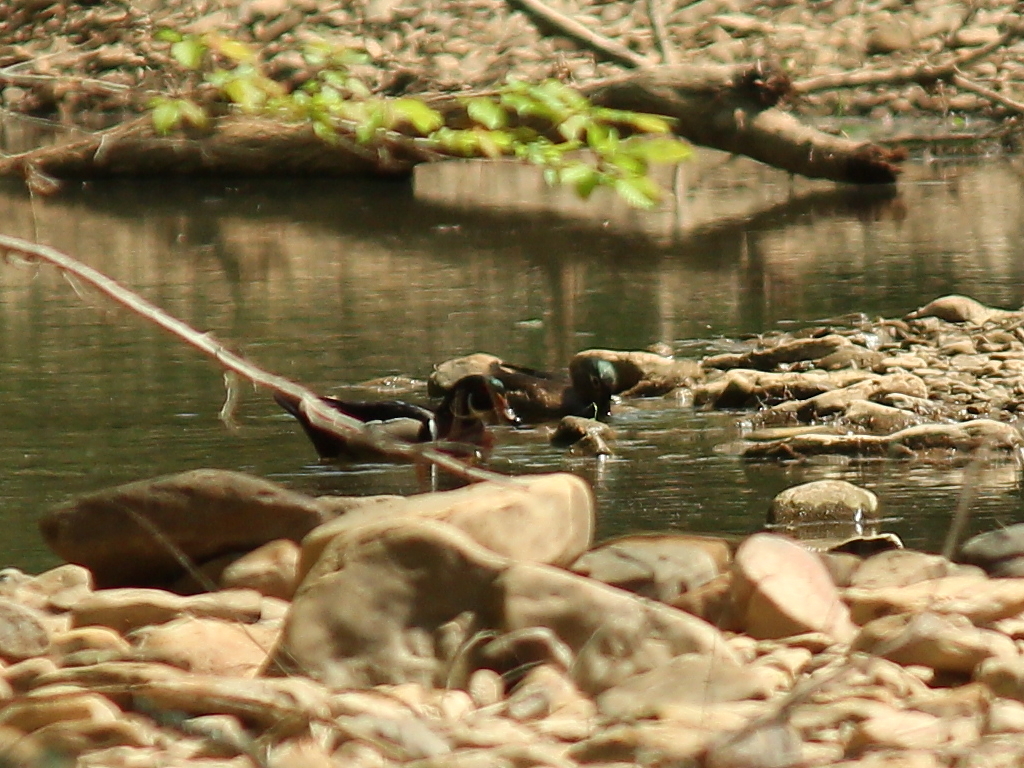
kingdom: Animalia
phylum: Chordata
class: Aves
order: Anseriformes
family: Anatidae
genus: Aix
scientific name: Aix sponsa
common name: Wood duck
